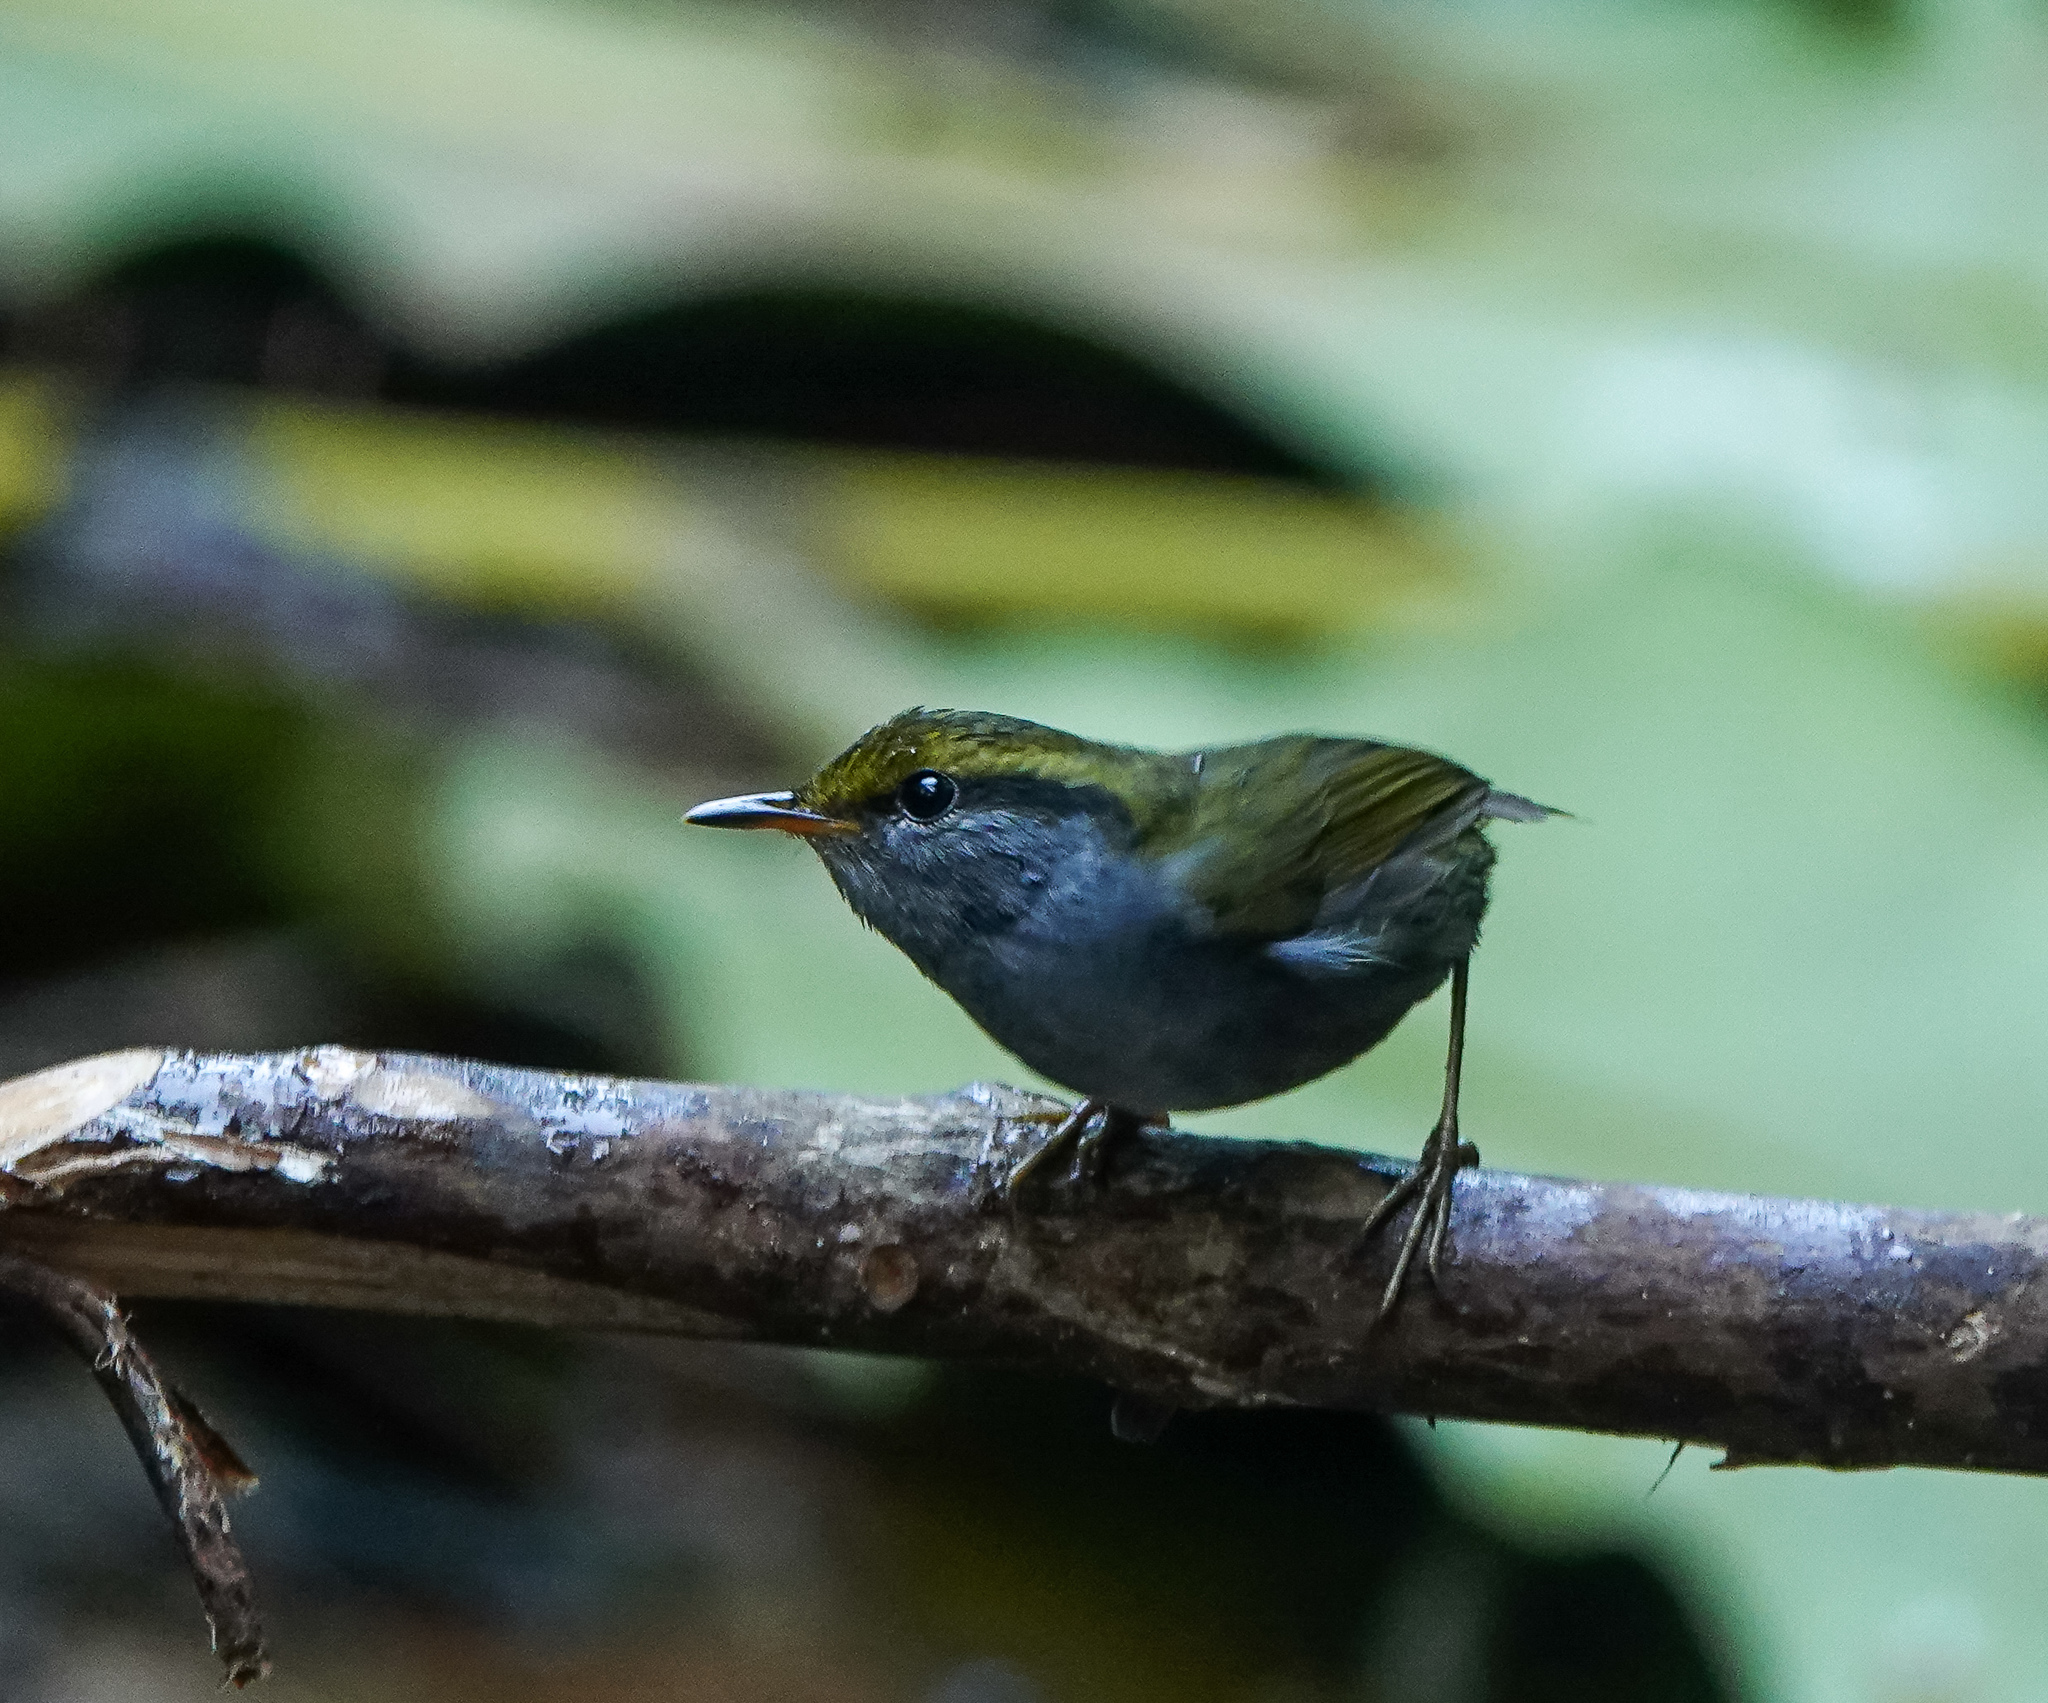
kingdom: Animalia
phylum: Chordata
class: Aves
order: Passeriformes
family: Cettiidae
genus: Tesia
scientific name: Tesia cyaniventer
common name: Grey-bellied tesia
